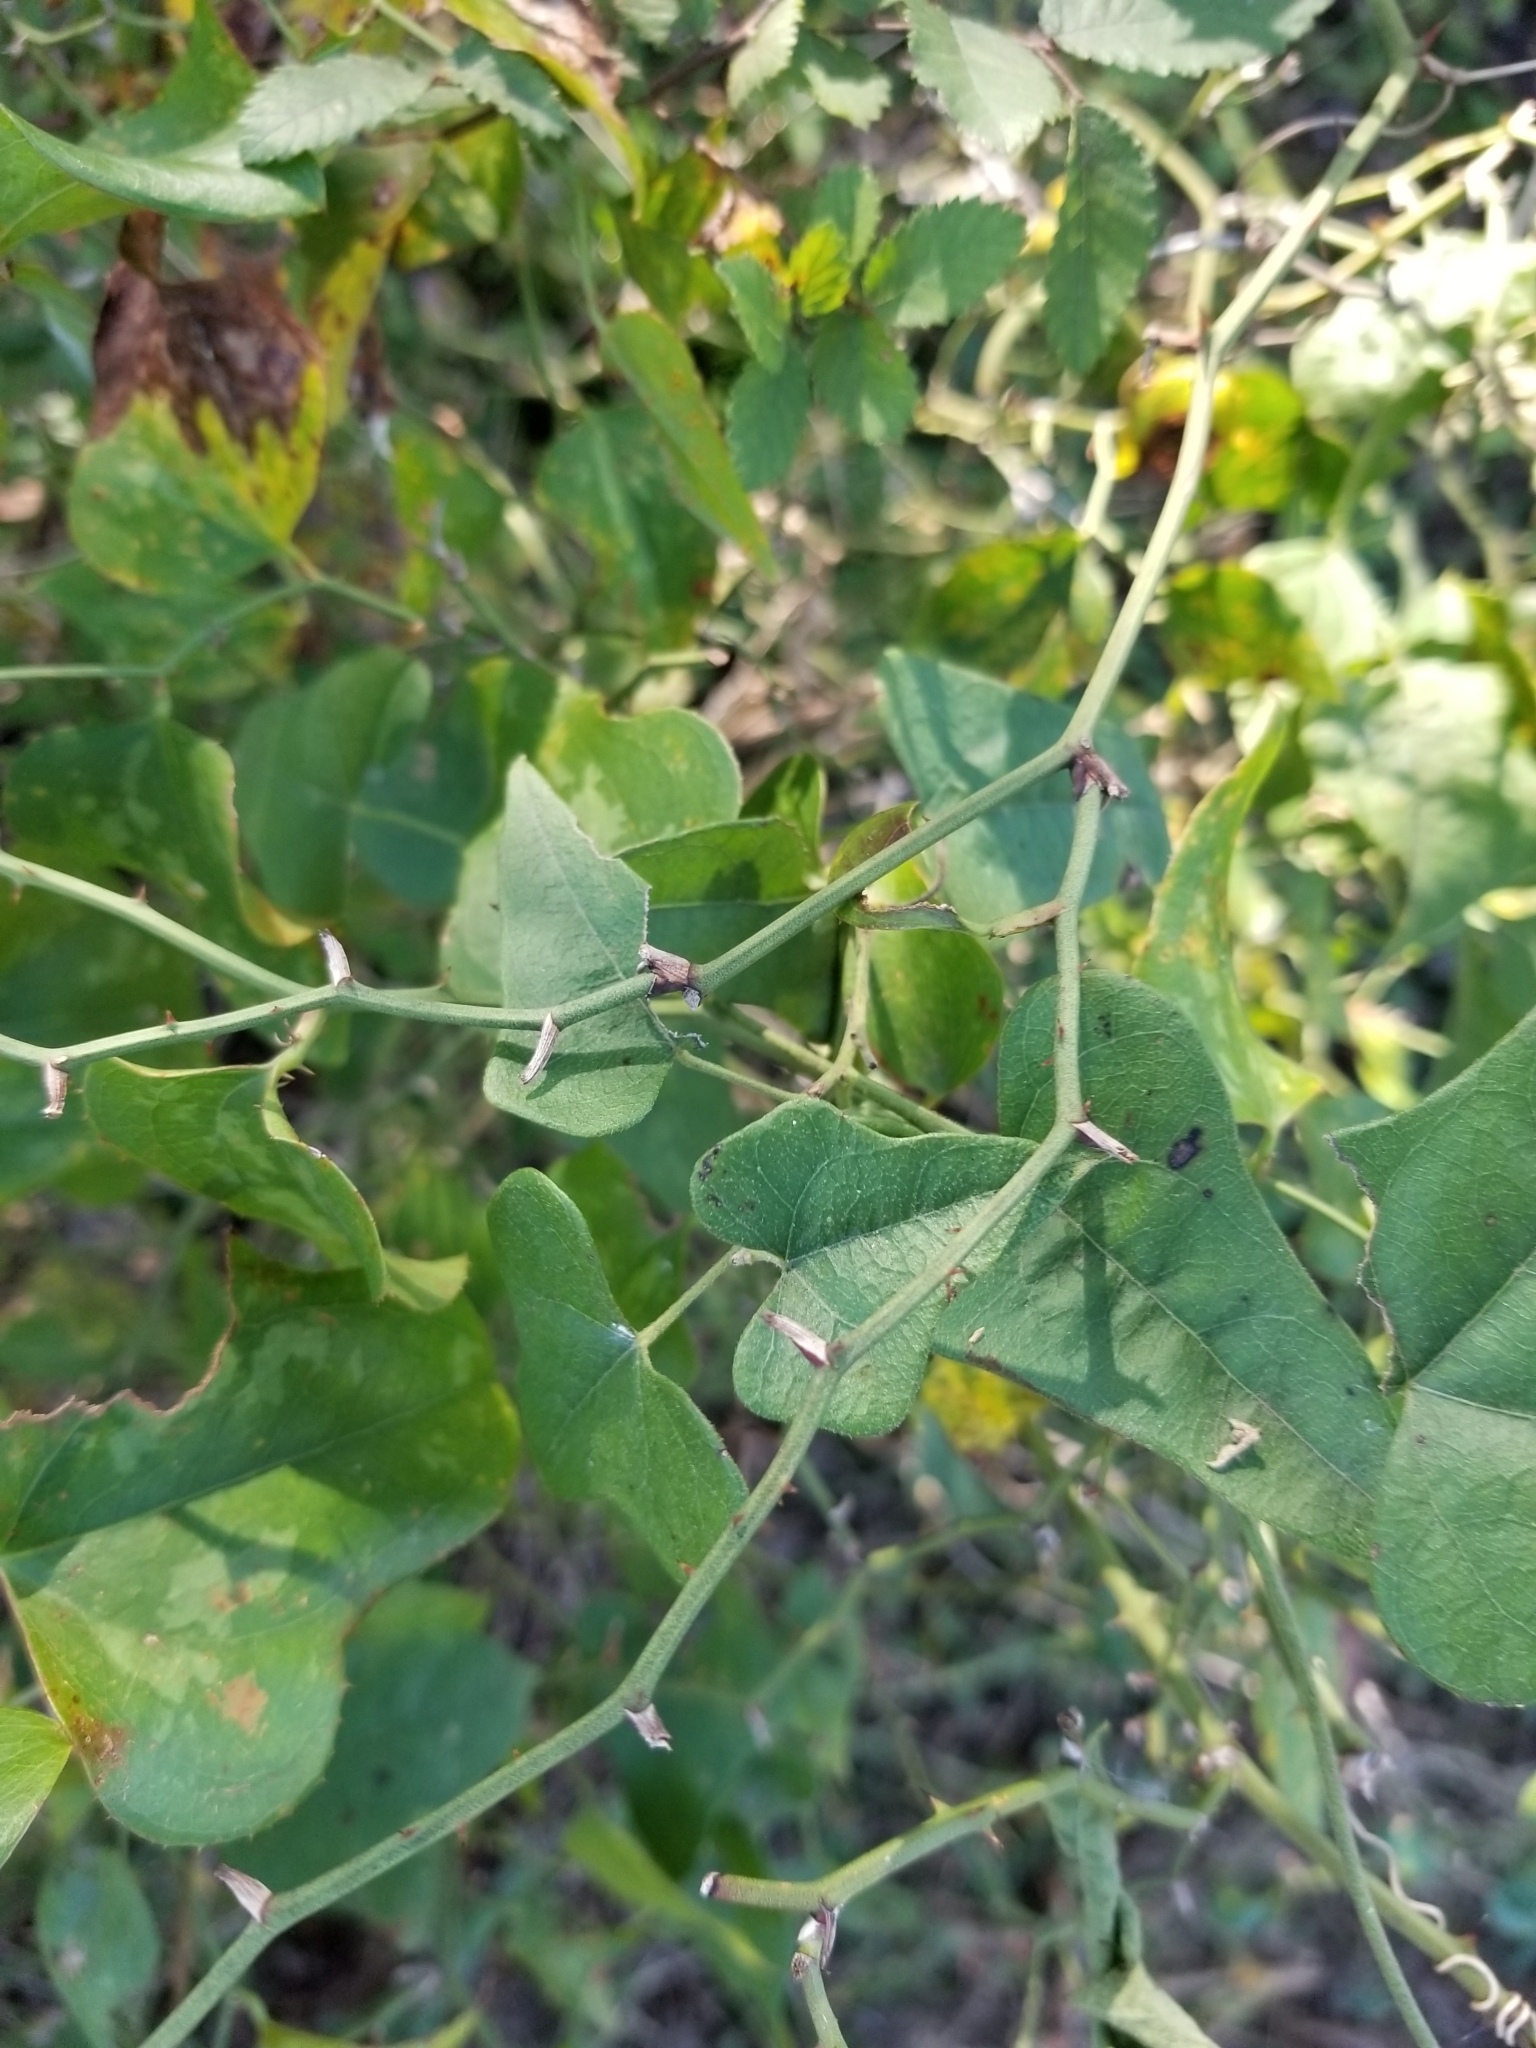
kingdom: Plantae
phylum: Tracheophyta
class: Liliopsida
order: Liliales
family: Smilacaceae
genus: Smilax
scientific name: Smilax bona-nox
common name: Catbrier
